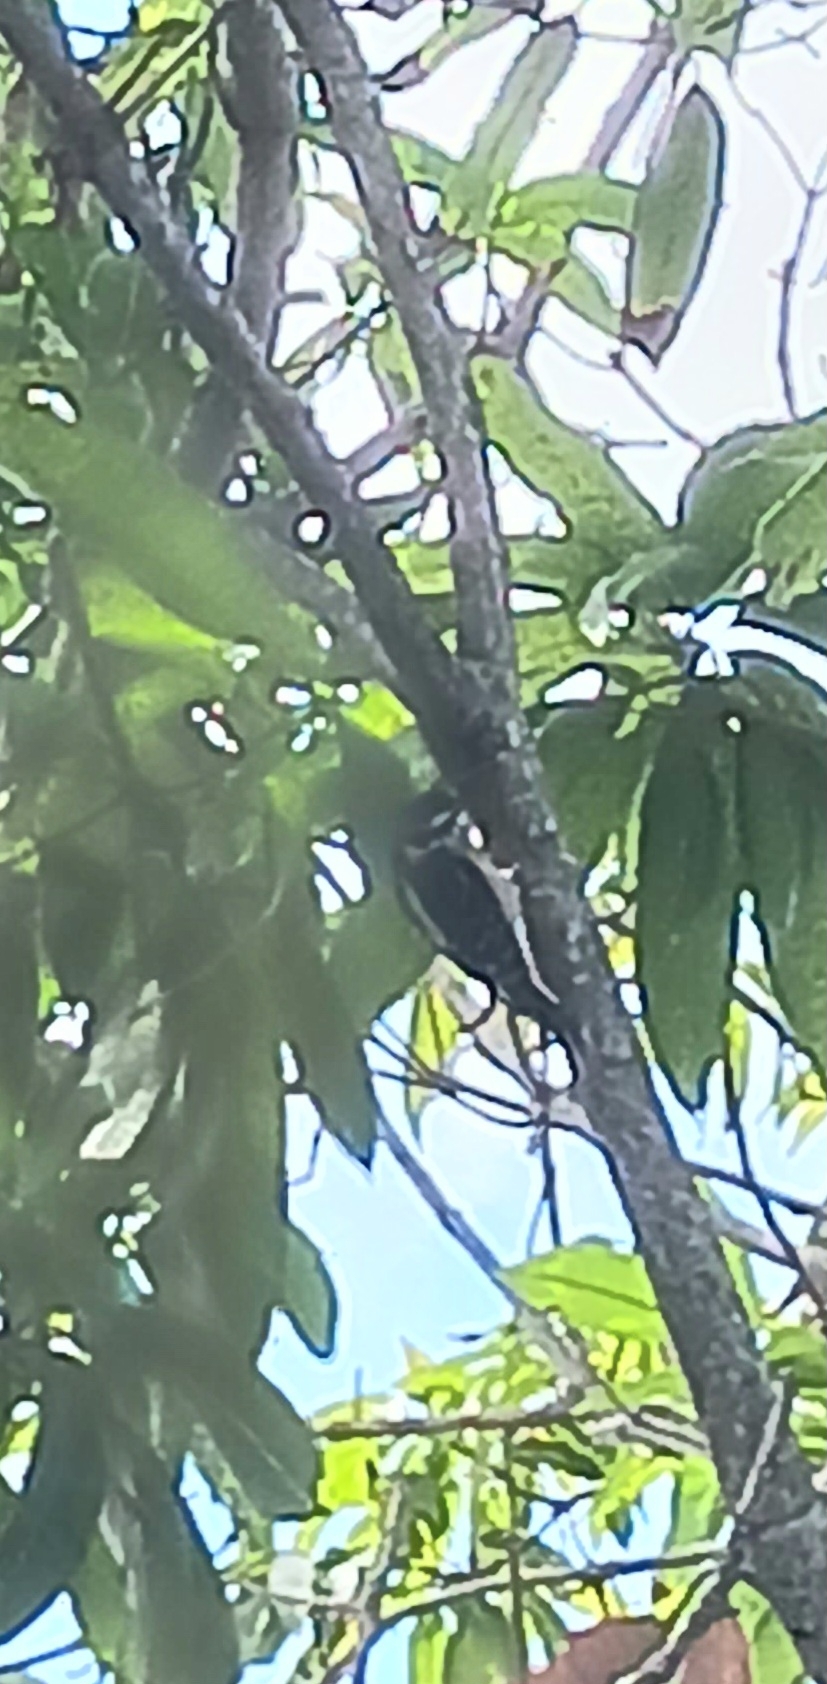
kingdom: Animalia
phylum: Chordata
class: Aves
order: Piciformes
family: Picidae
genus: Dryobates
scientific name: Dryobates pubescens
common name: Downy woodpecker
